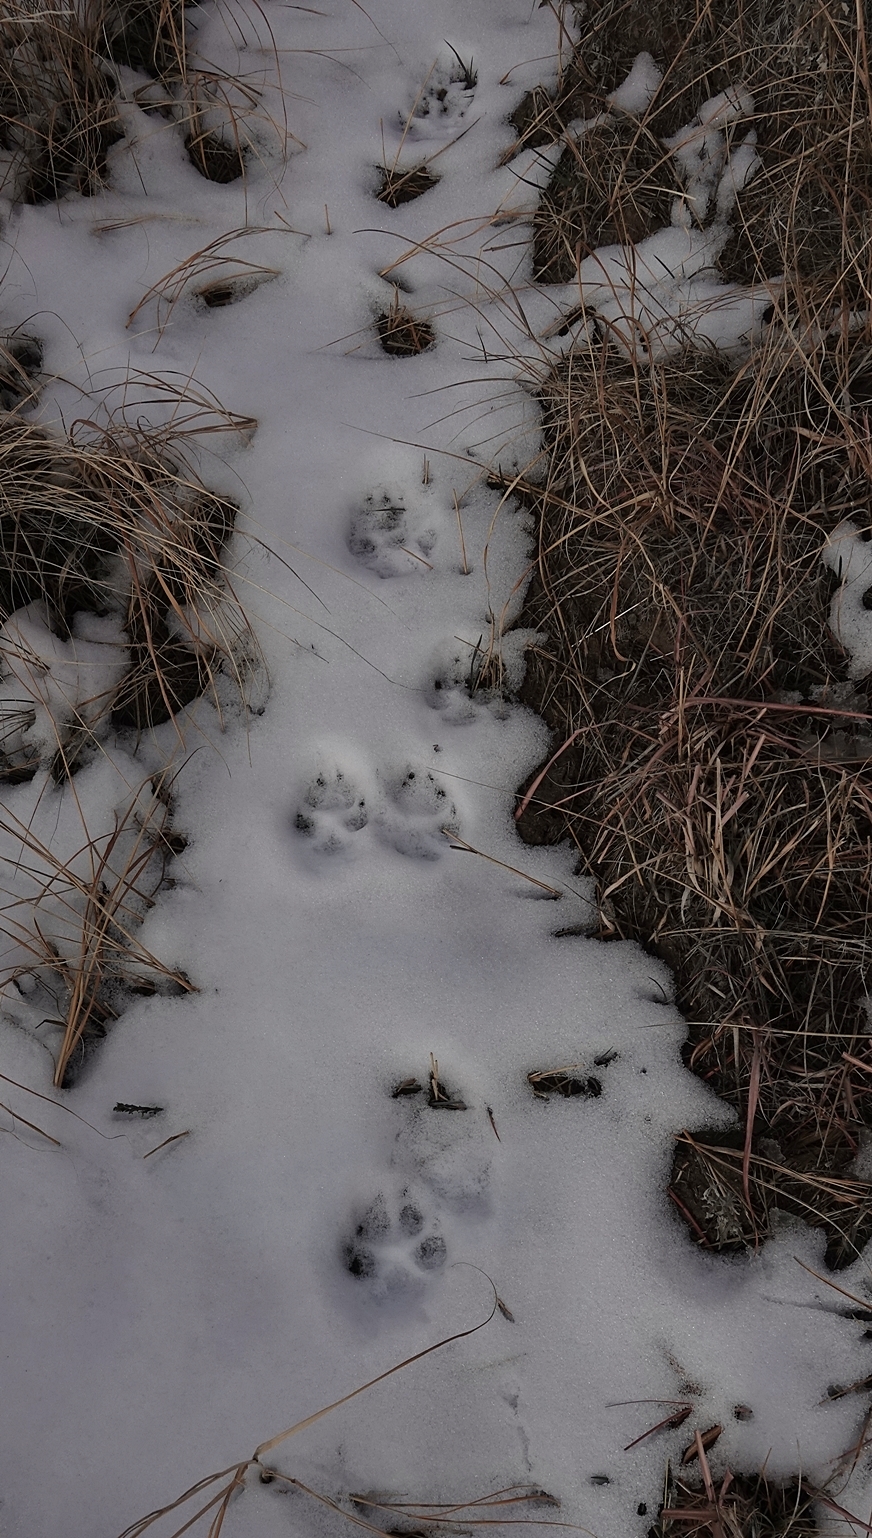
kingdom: Animalia
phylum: Chordata
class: Mammalia
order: Carnivora
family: Canidae
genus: Canis
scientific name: Canis latrans
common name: Coyote
